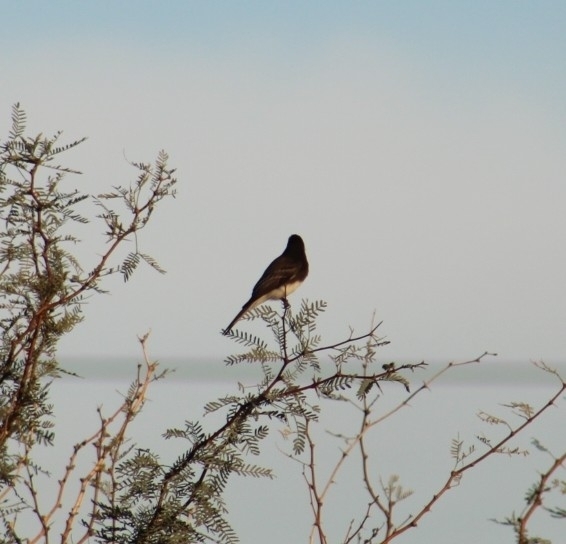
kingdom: Animalia
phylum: Chordata
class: Aves
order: Passeriformes
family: Tyrannidae
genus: Sayornis
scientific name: Sayornis nigricans
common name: Black phoebe
